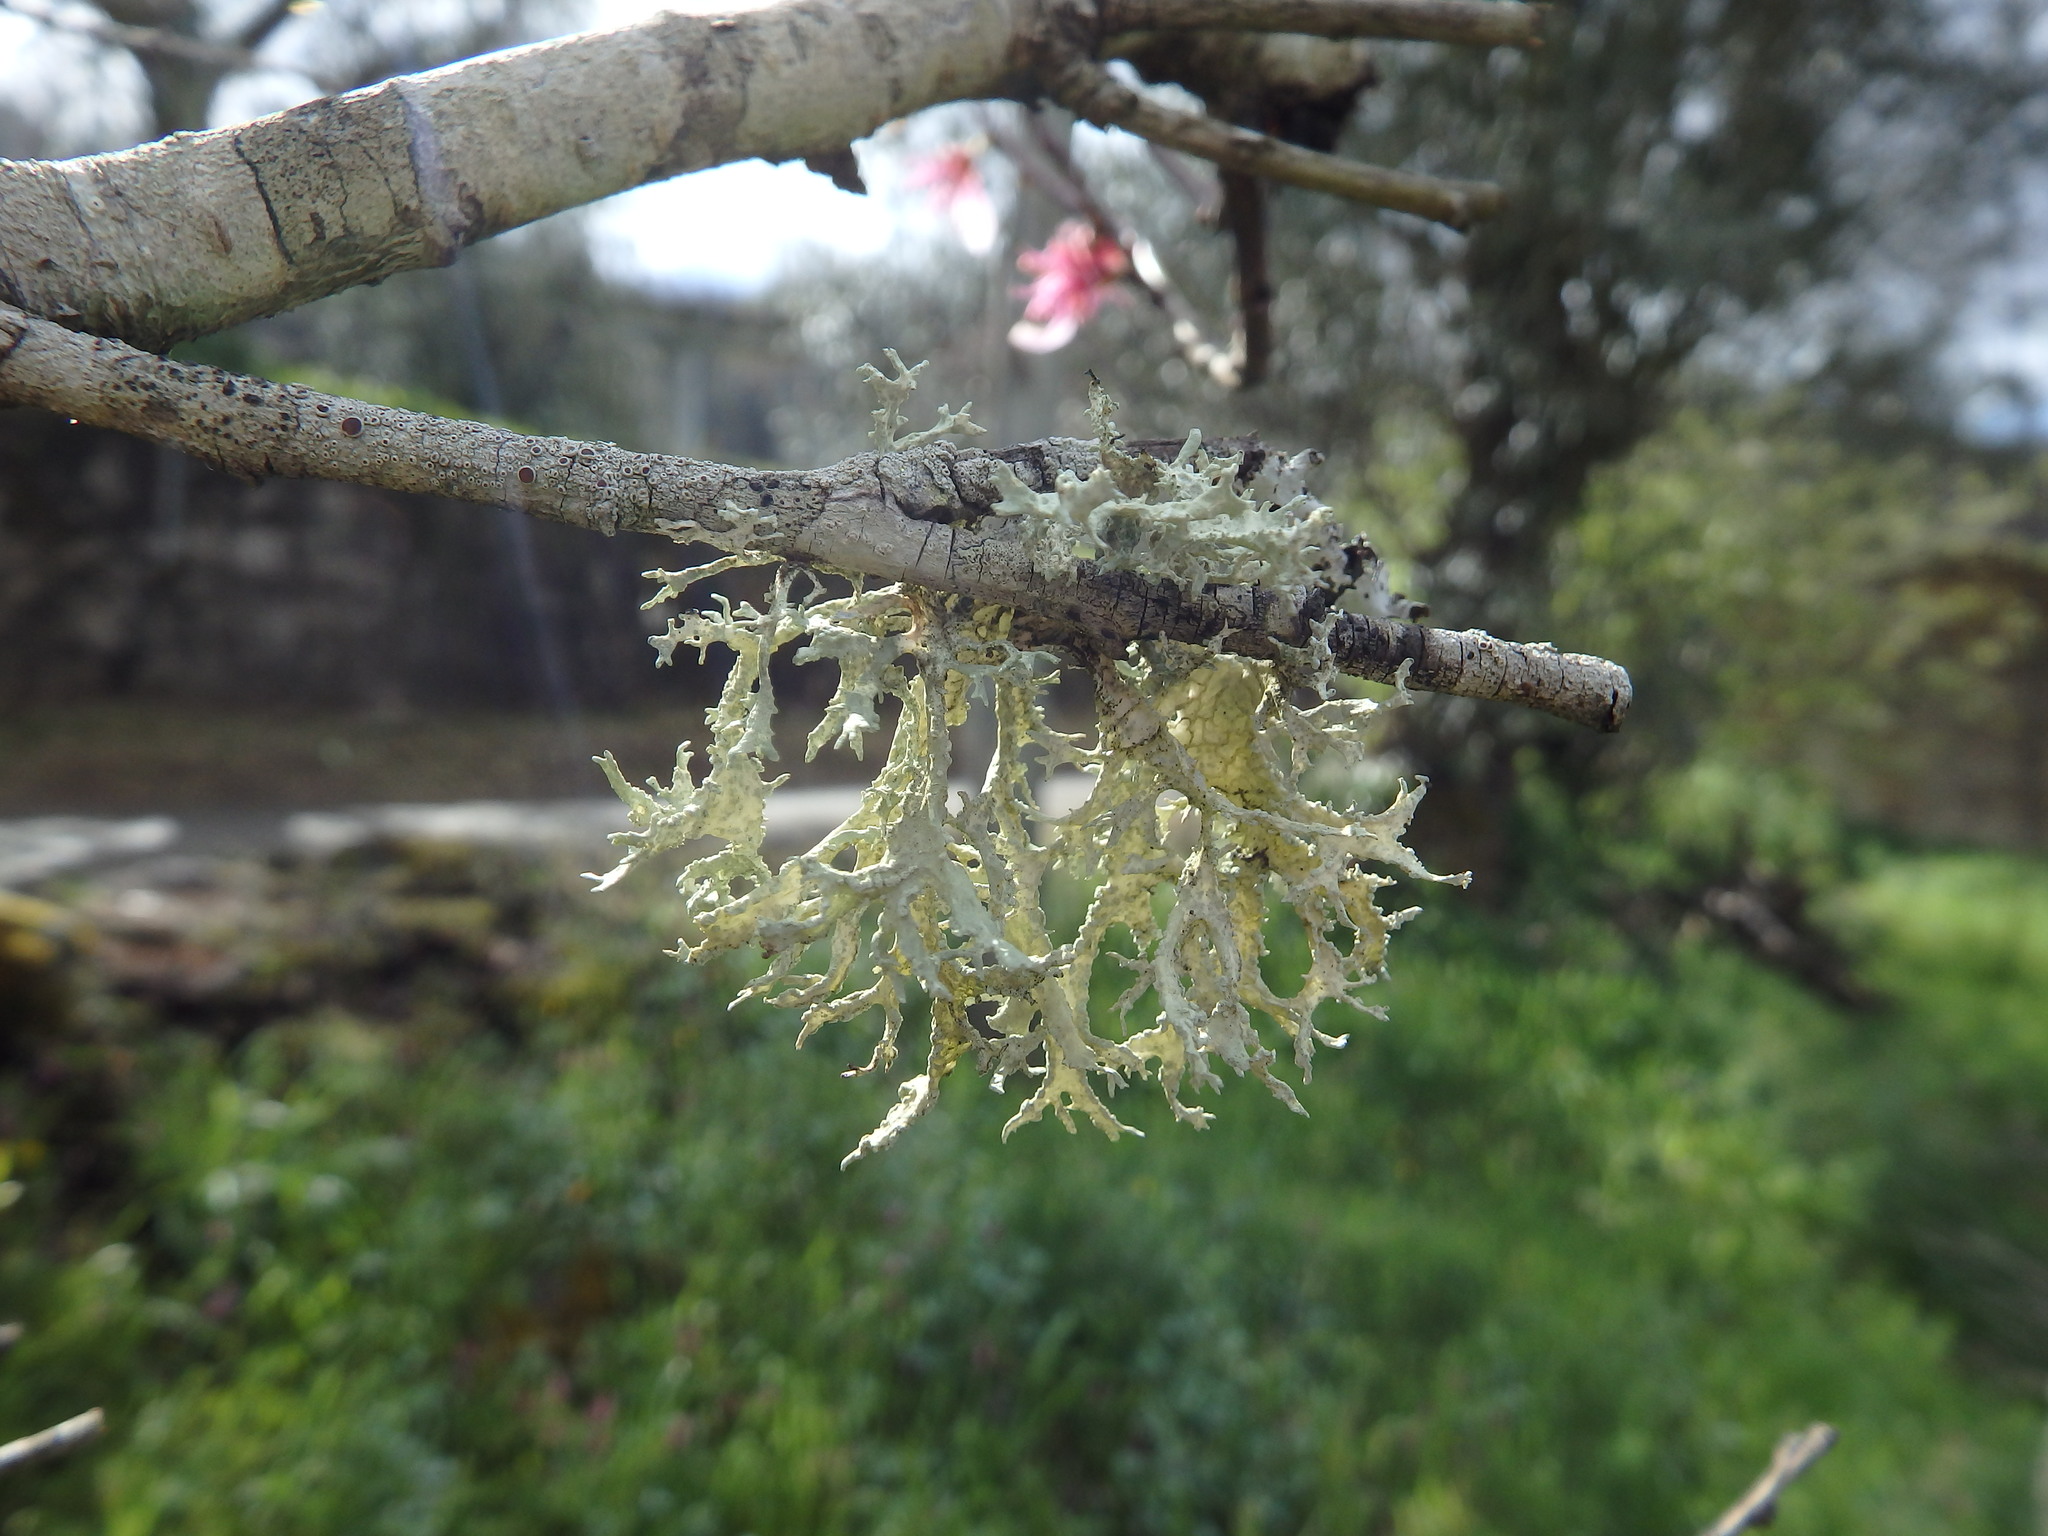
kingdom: Fungi
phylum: Ascomycota
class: Lecanoromycetes
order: Lecanorales
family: Parmeliaceae
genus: Evernia
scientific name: Evernia prunastri
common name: Oak moss
